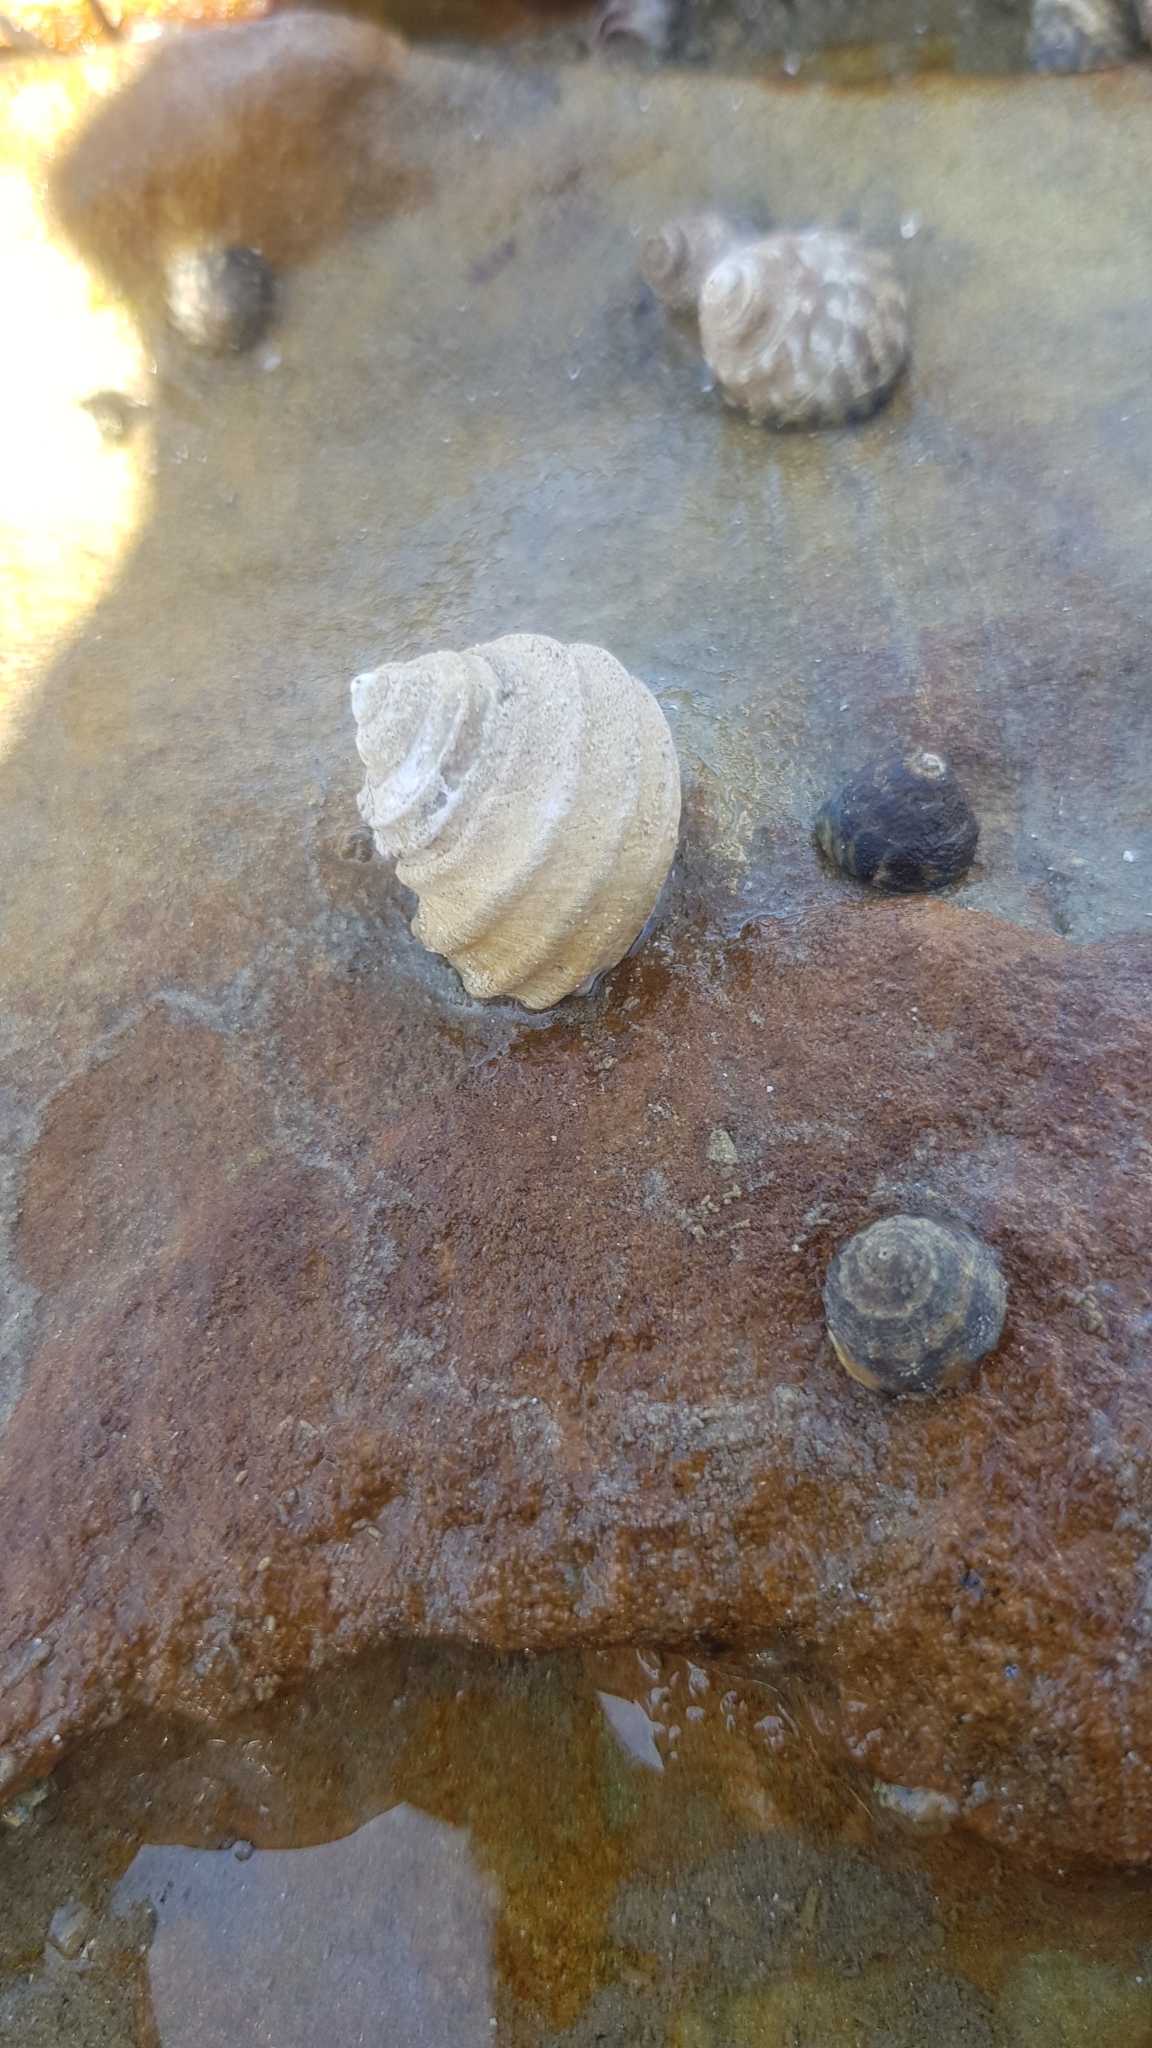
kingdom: Animalia
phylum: Mollusca
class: Gastropoda
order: Trochida
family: Trochidae
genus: Austrocochlea
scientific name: Austrocochlea constricta
